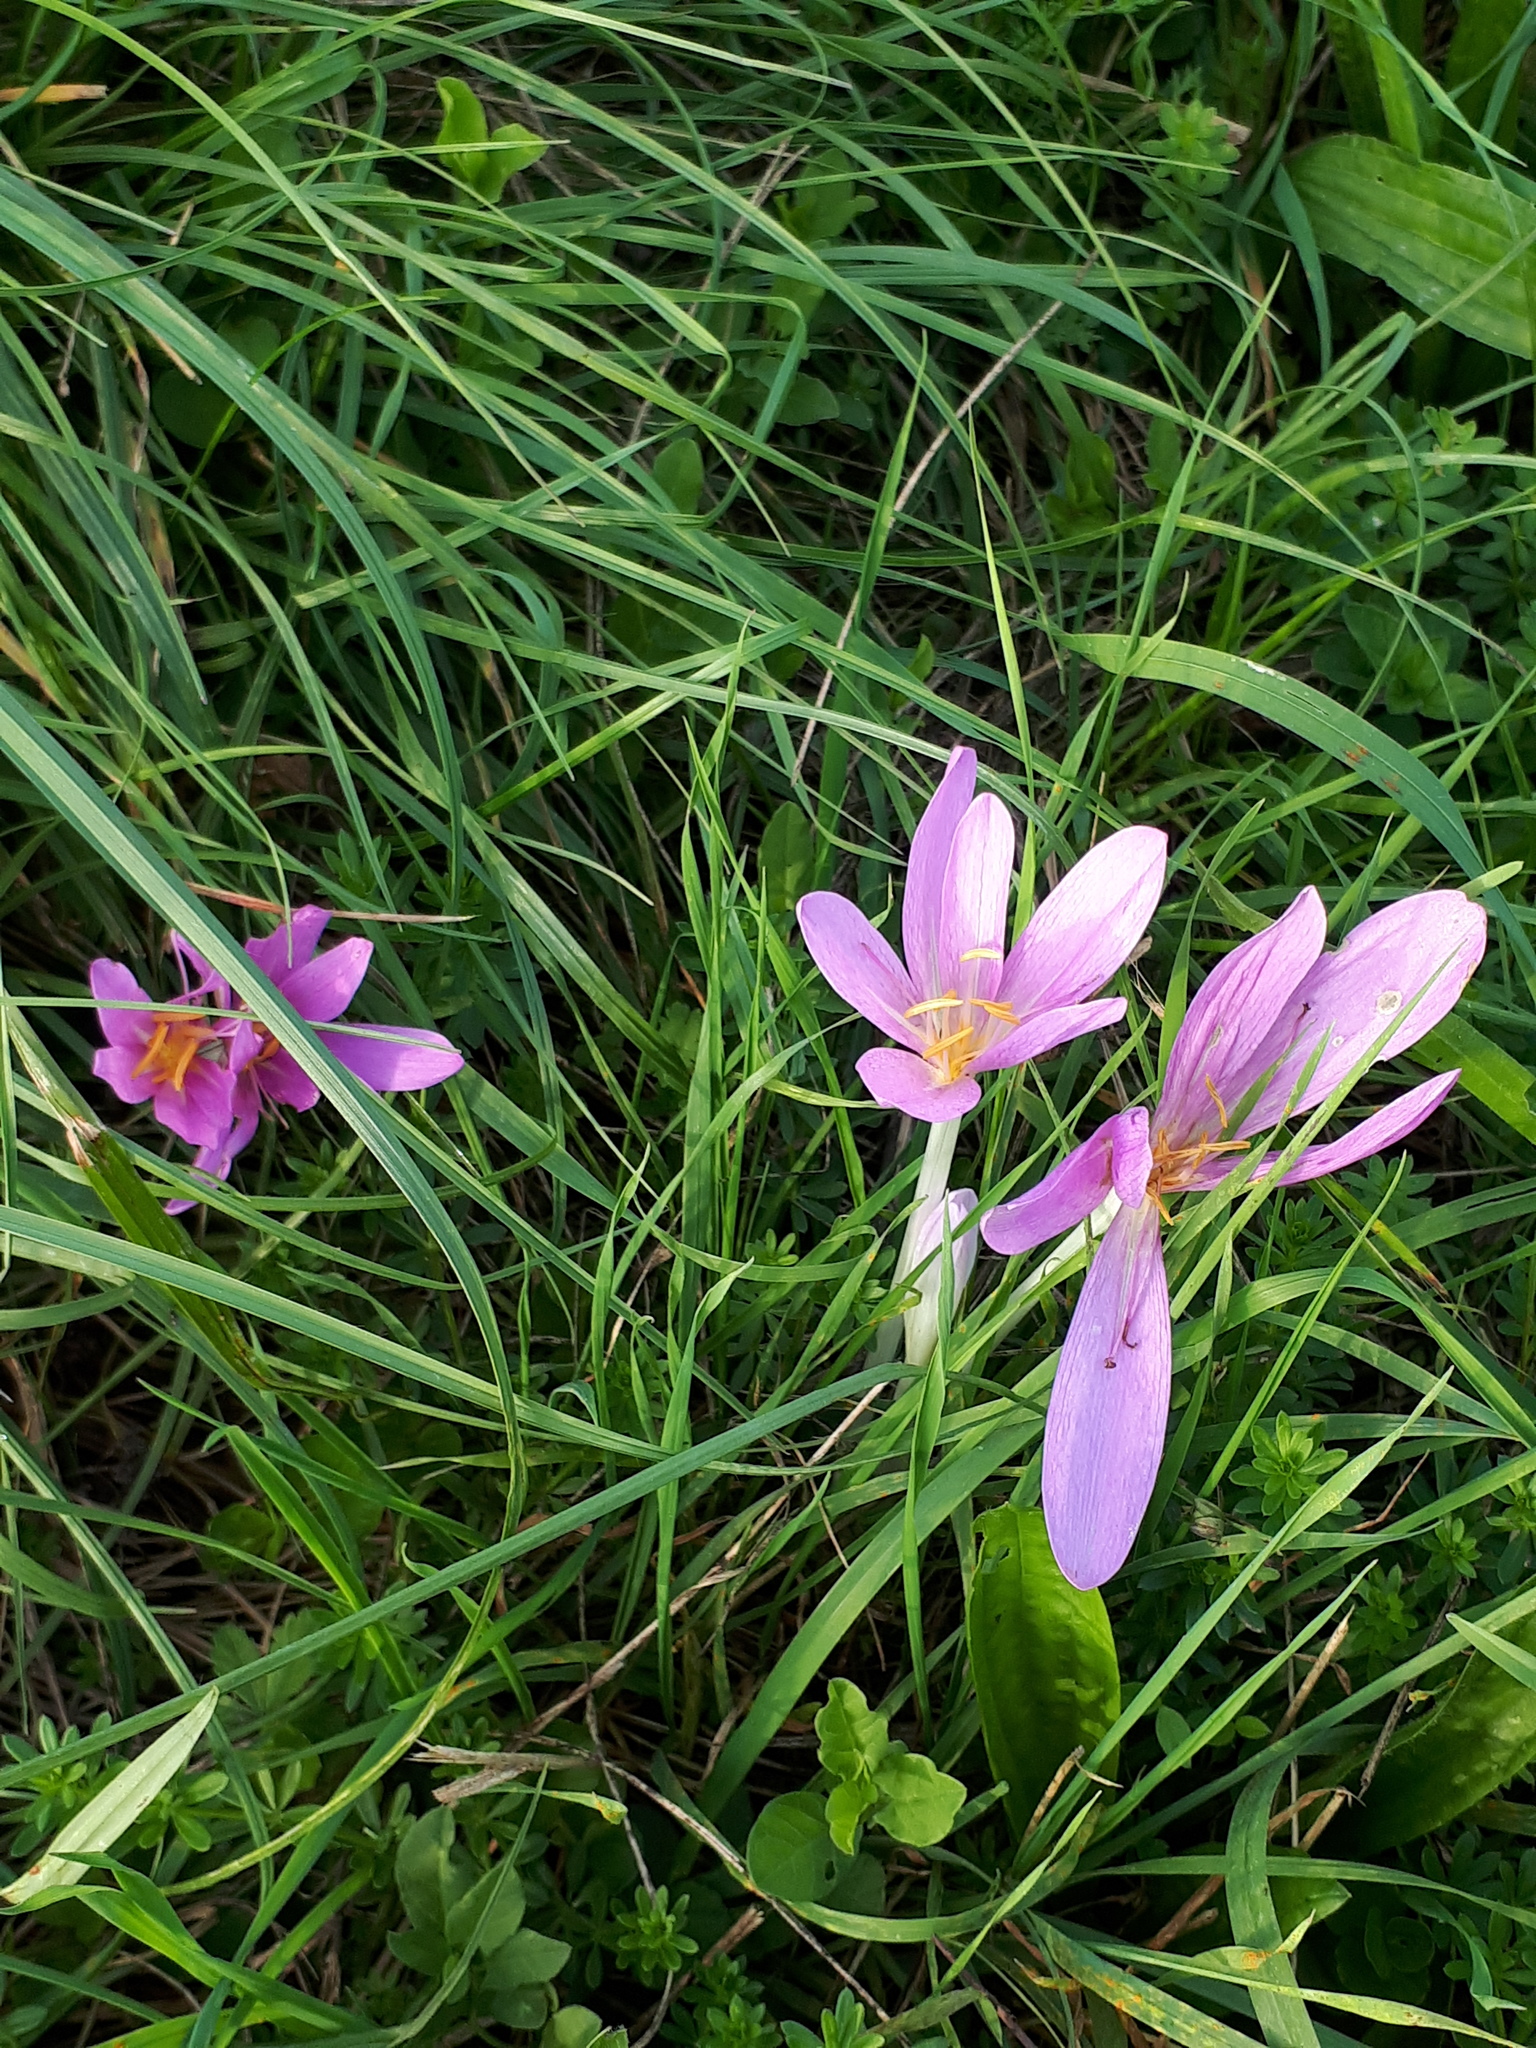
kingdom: Plantae
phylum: Tracheophyta
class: Liliopsida
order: Liliales
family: Colchicaceae
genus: Colchicum
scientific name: Colchicum autumnale
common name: Autumn crocus
